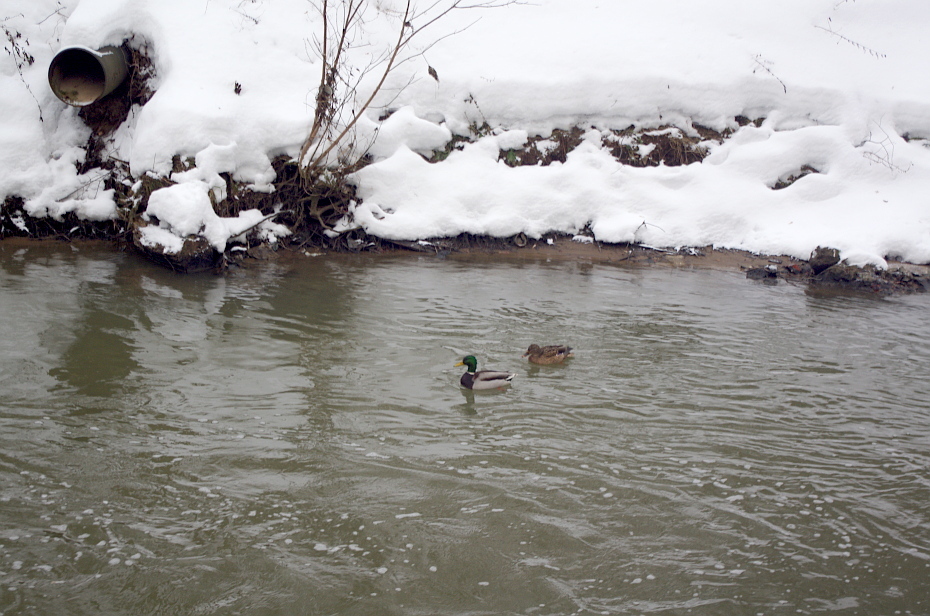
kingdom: Animalia
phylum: Chordata
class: Aves
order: Anseriformes
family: Anatidae
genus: Anas
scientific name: Anas platyrhynchos
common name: Mallard
